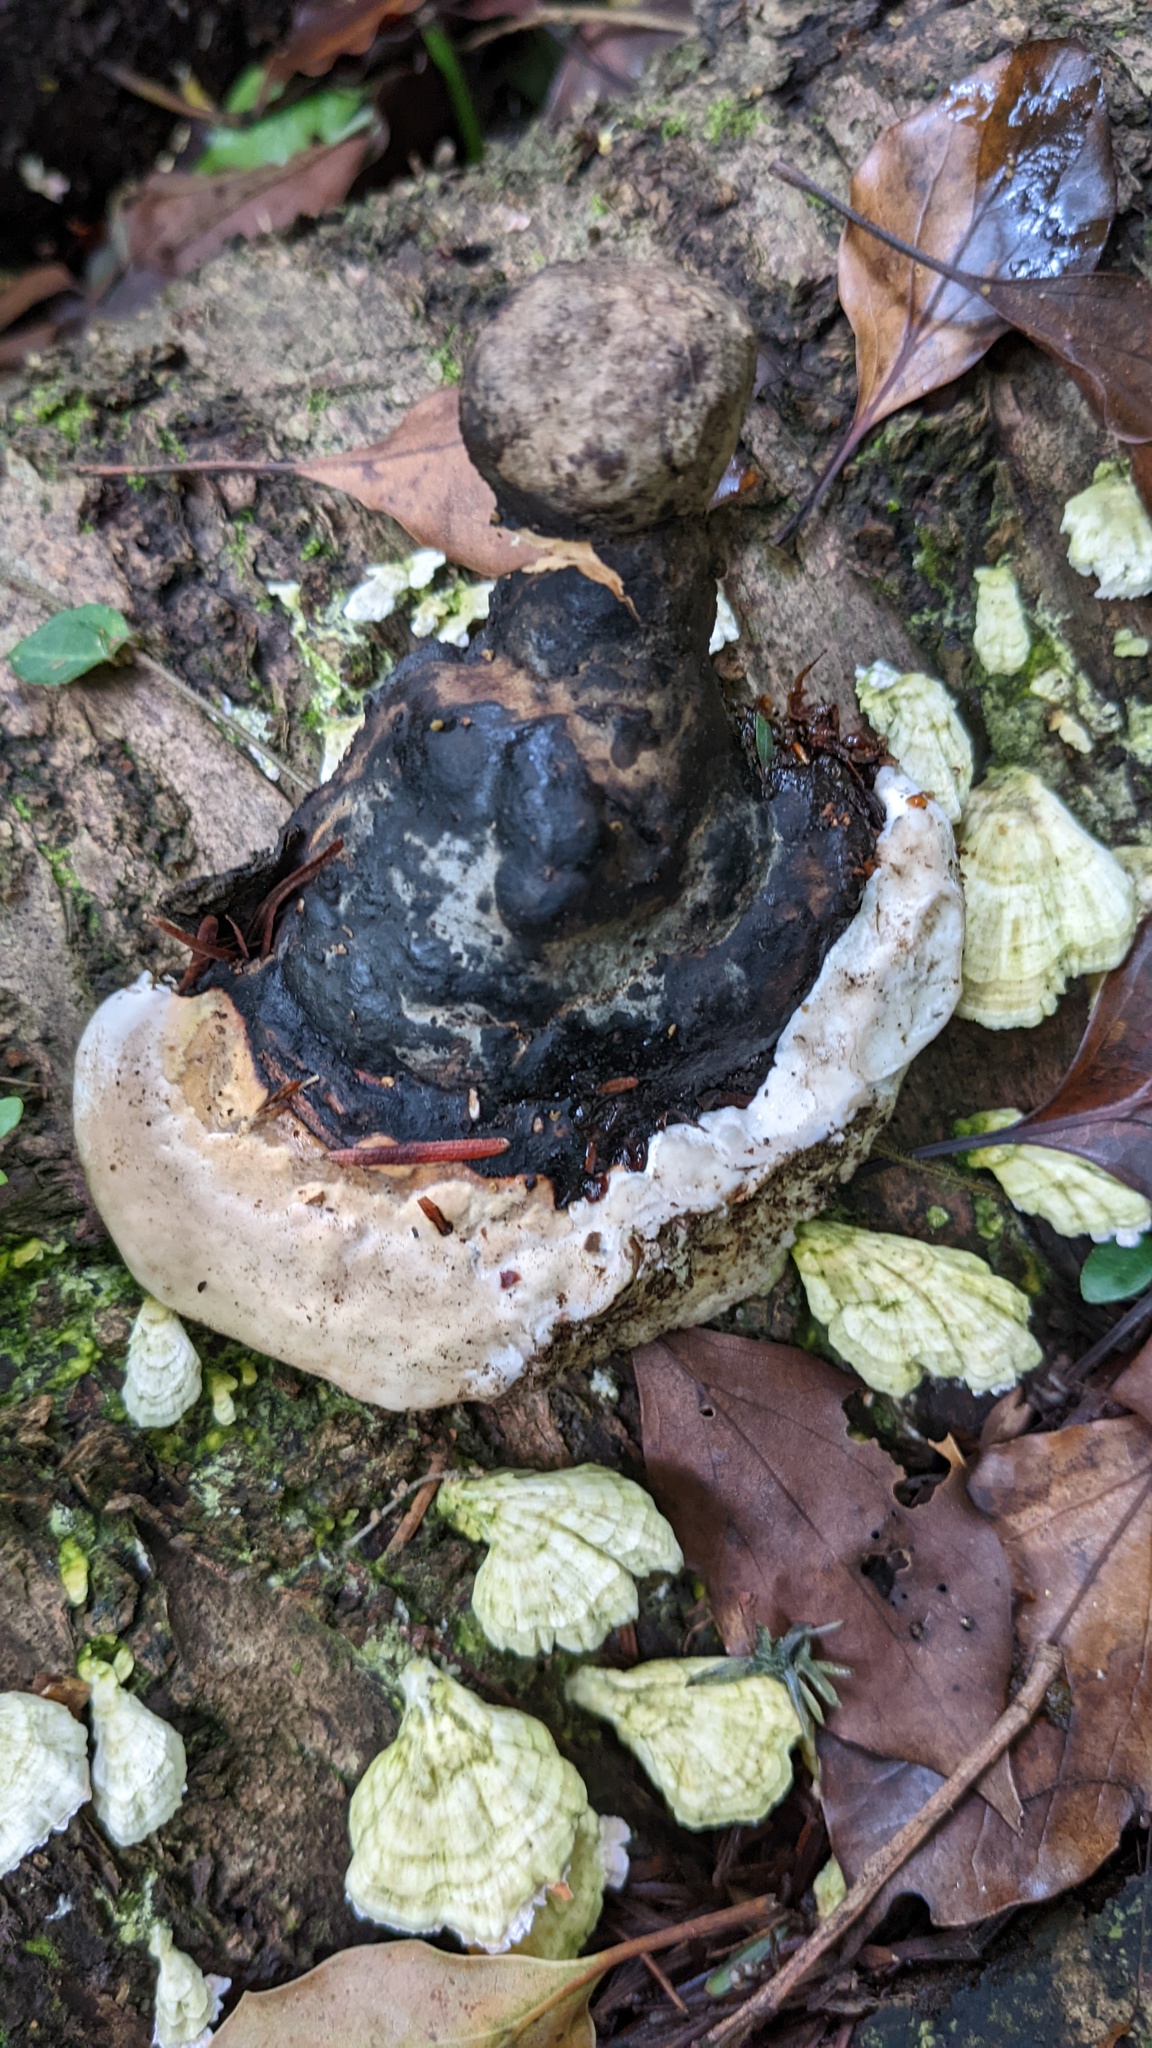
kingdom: Fungi
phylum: Basidiomycota
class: Agaricomycetes
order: Polyporales
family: Fomitopsidaceae
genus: Fomitopsis
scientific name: Fomitopsis pinicola
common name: Red-belted bracket
